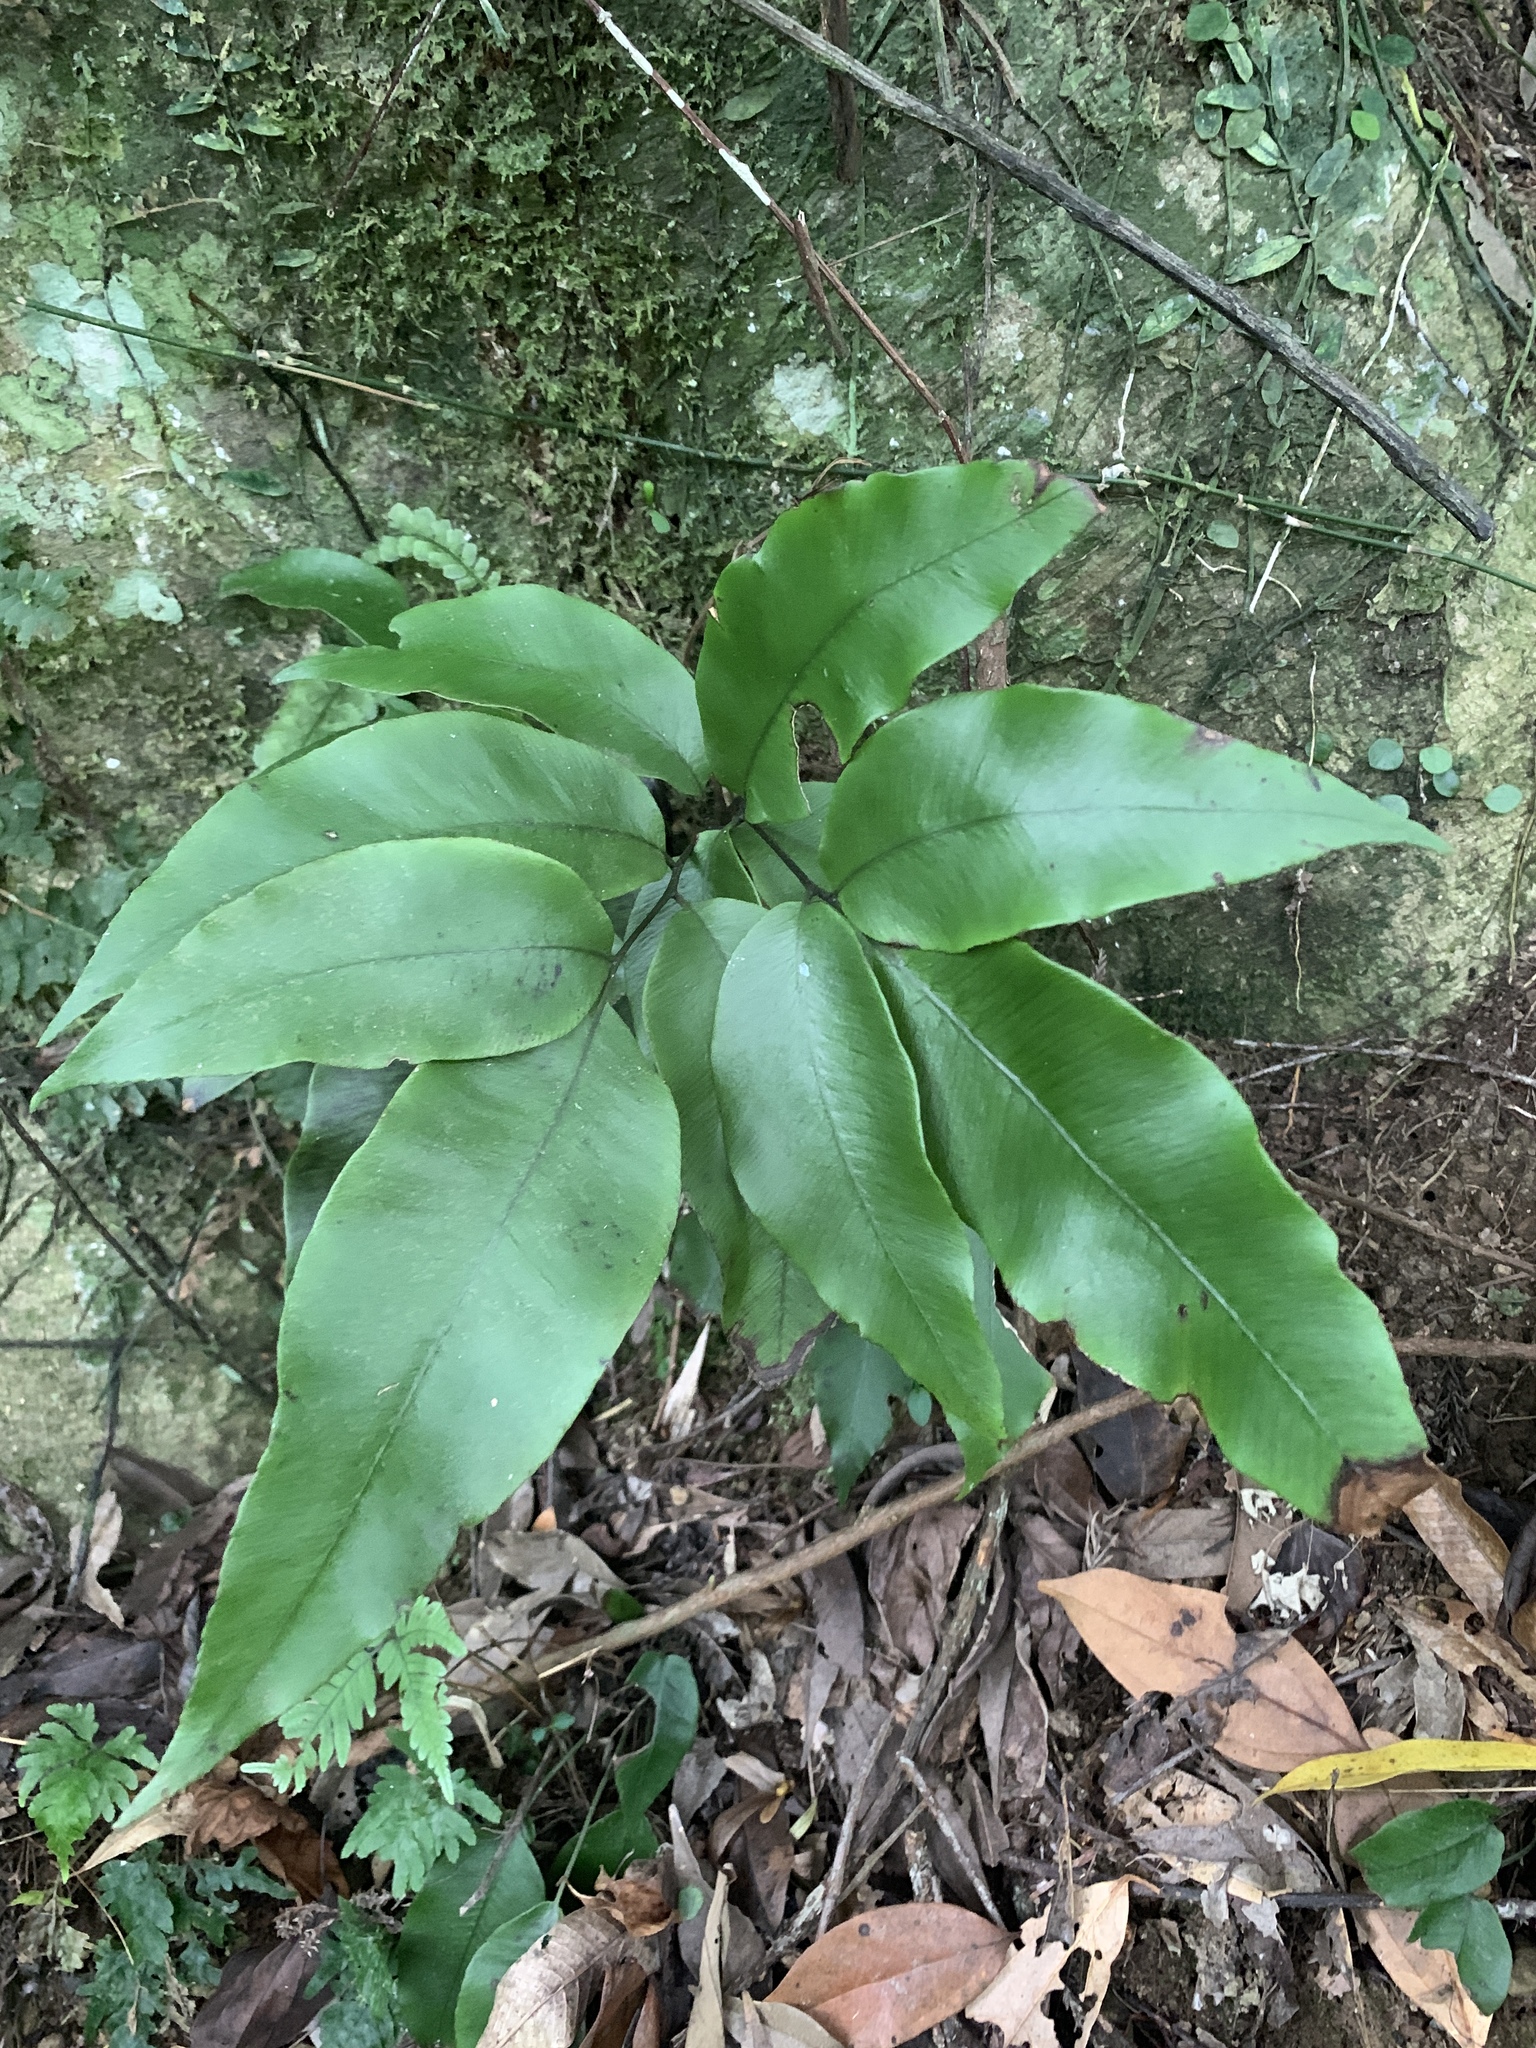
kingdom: Plantae
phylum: Tracheophyta
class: Polypodiopsida
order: Polypodiales
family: Athyriaceae
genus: Diplazium
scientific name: Diplazium lineolatum
